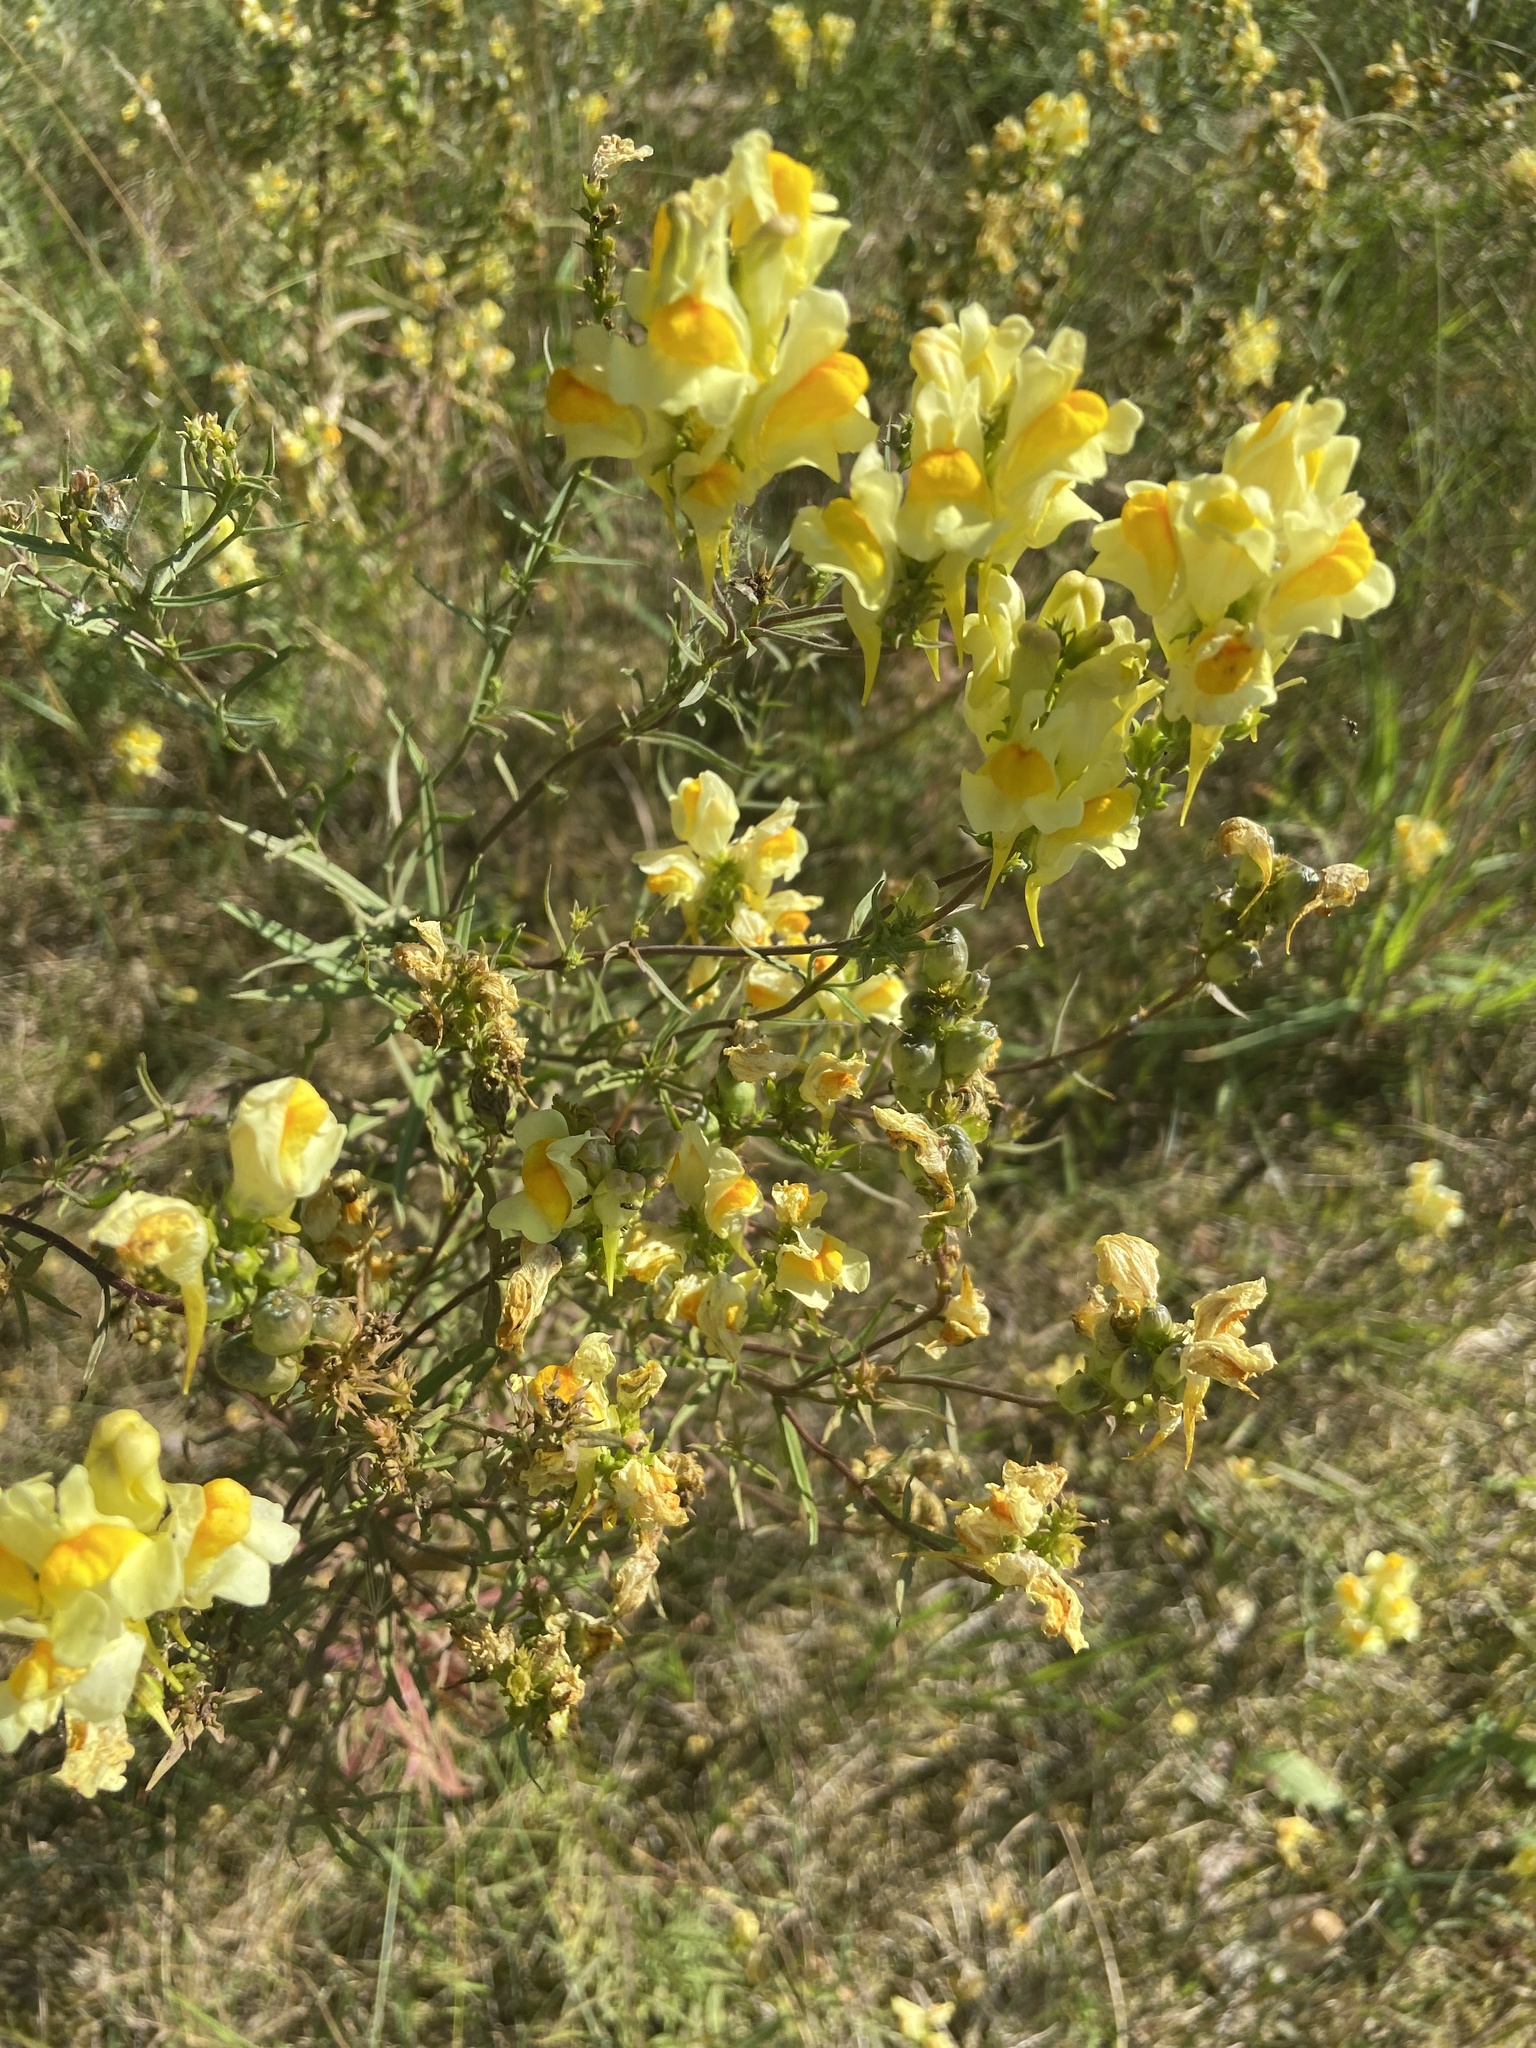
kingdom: Plantae
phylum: Tracheophyta
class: Magnoliopsida
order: Lamiales
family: Plantaginaceae
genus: Linaria
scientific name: Linaria vulgaris
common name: Butter and eggs
